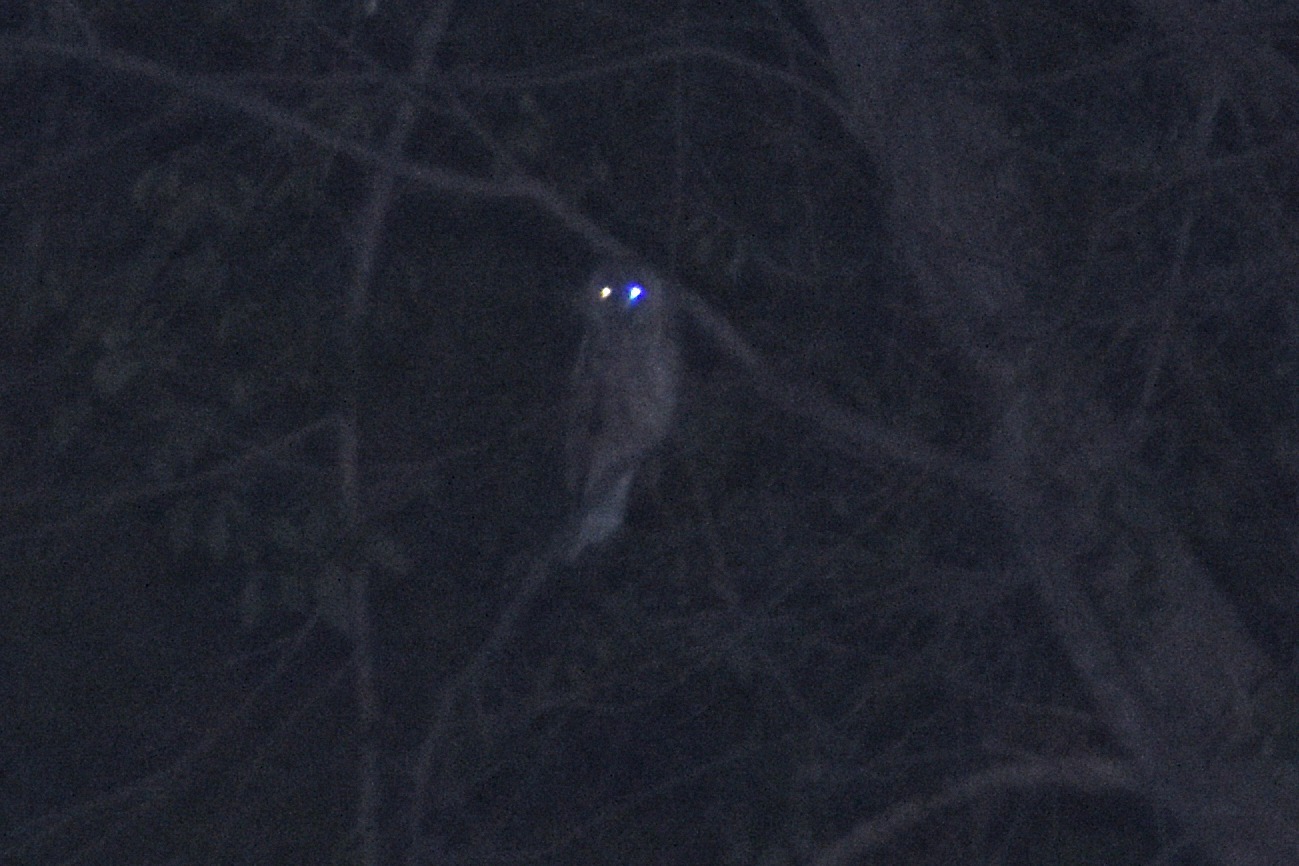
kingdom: Animalia
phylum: Chordata
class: Aves
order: Strigiformes
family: Strigidae
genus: Asio
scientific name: Asio otus
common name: Long-eared owl
